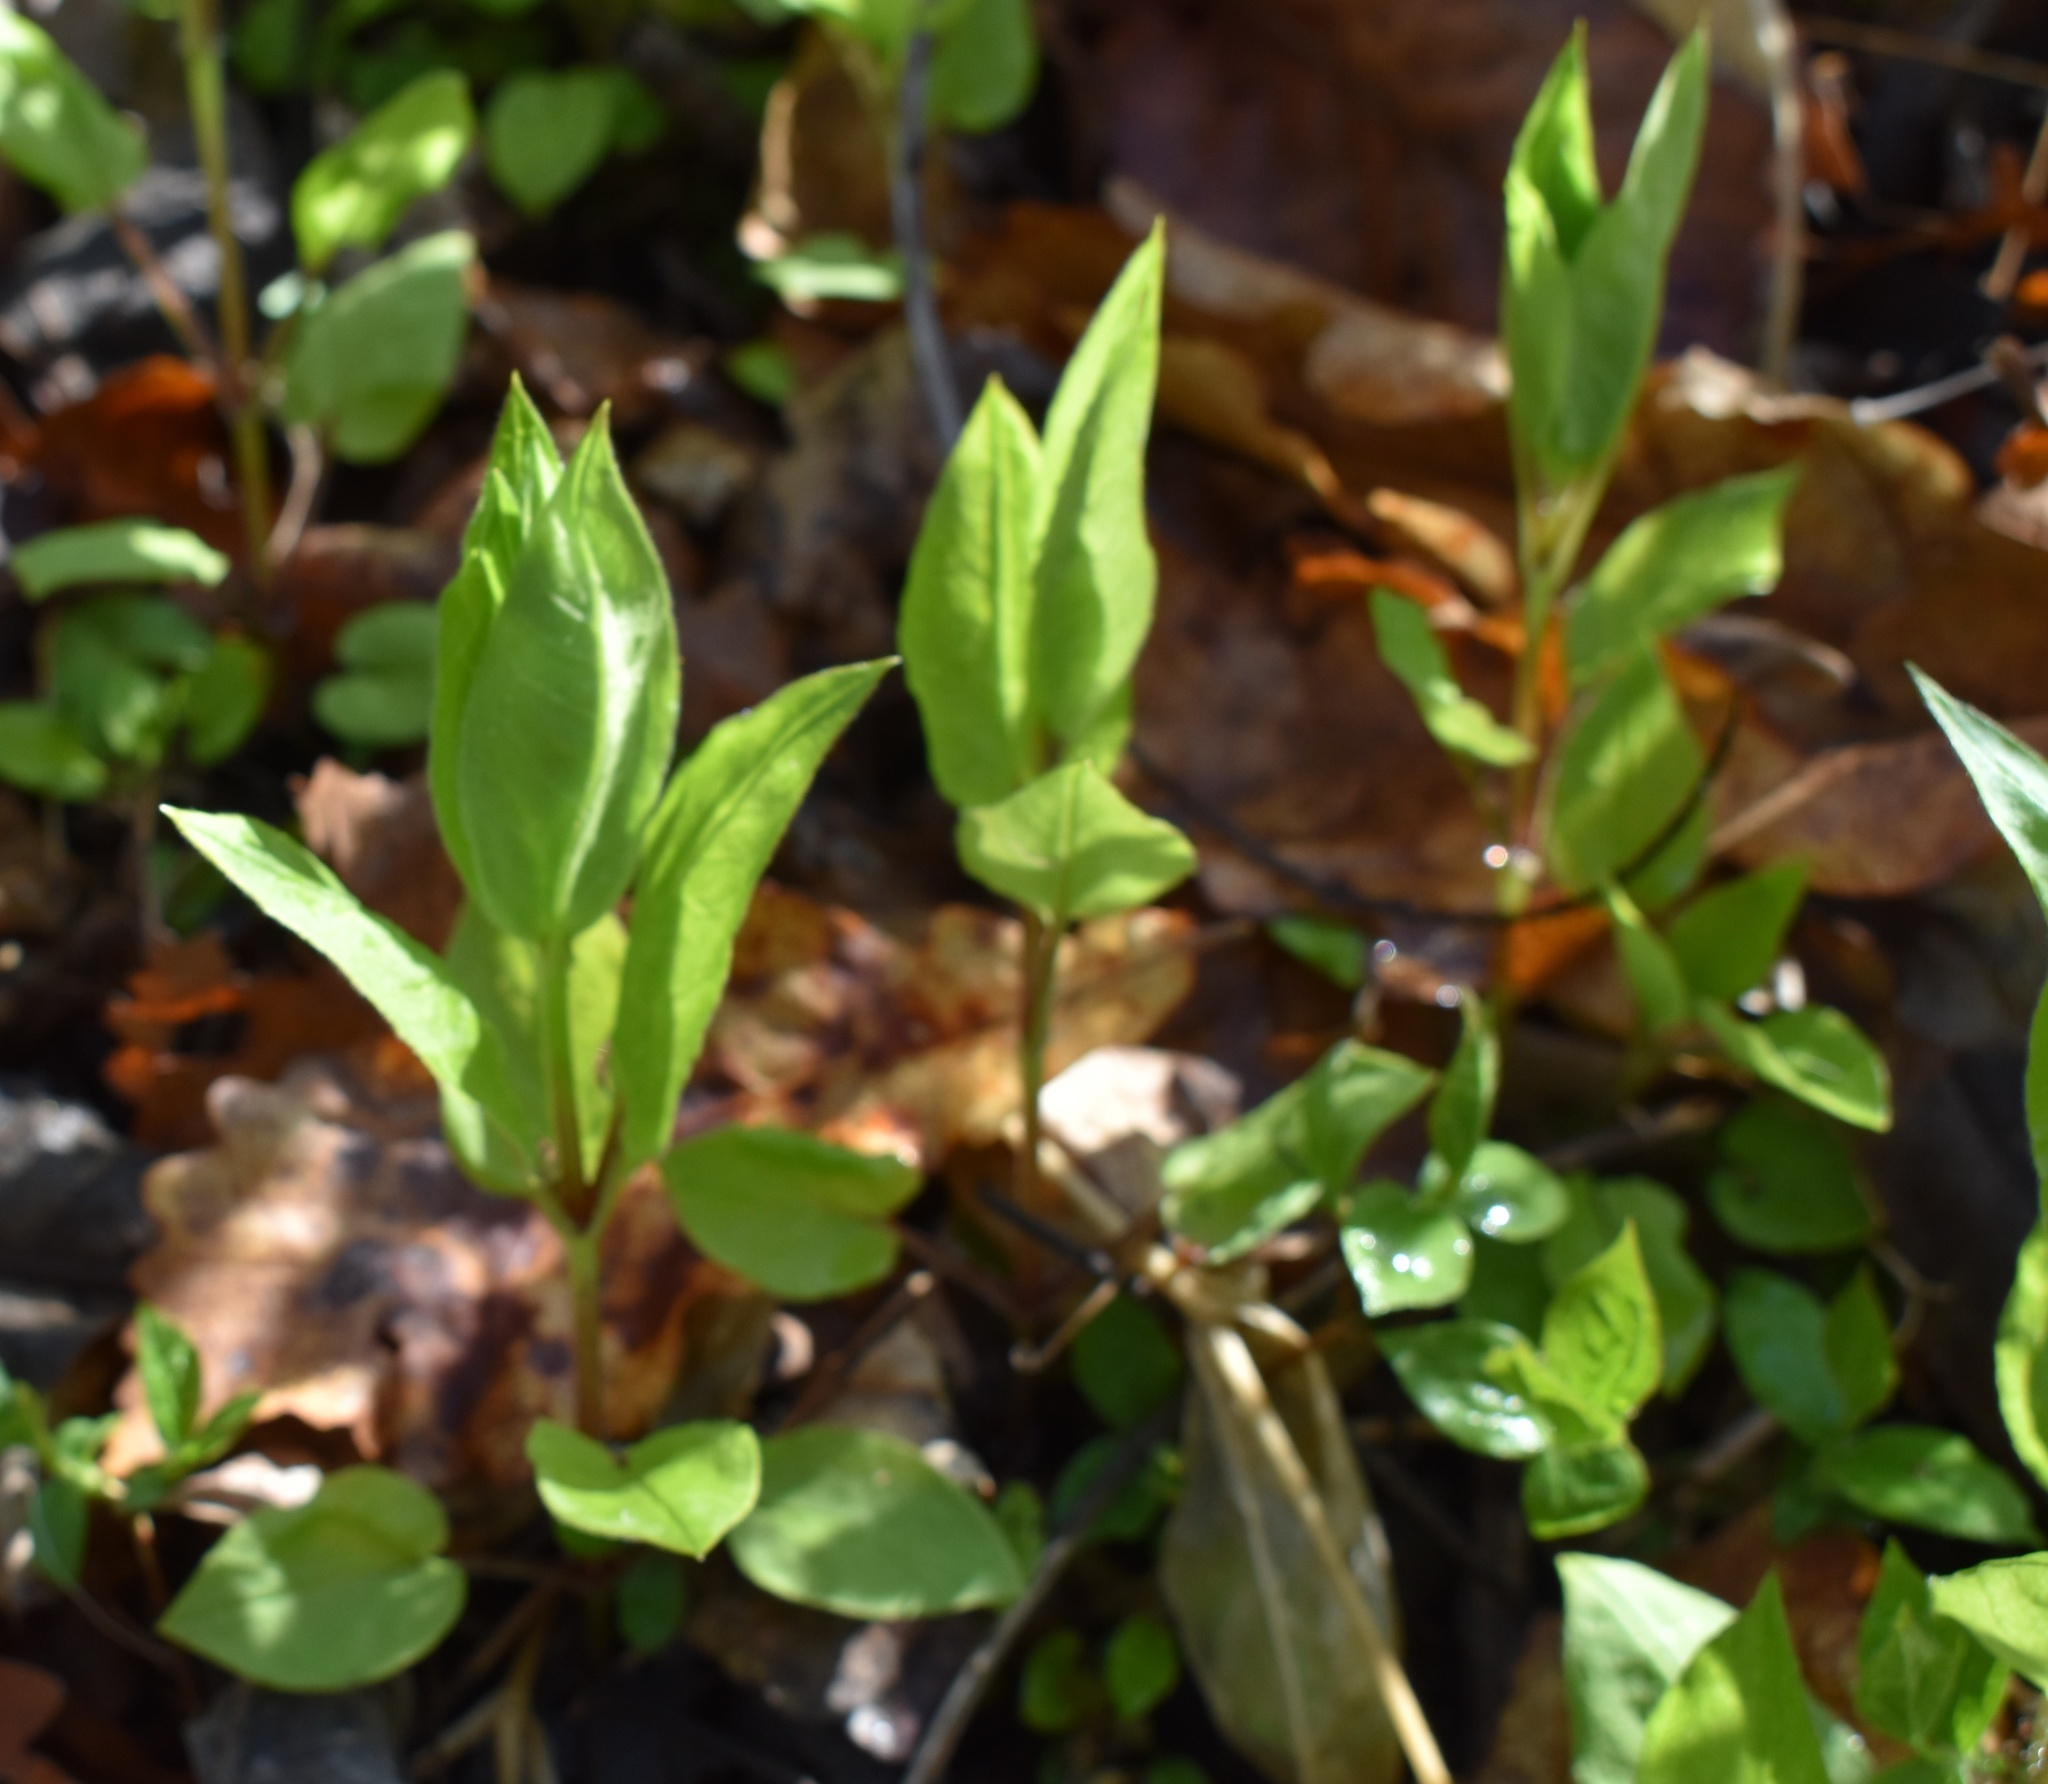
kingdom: Plantae
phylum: Tracheophyta
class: Magnoliopsida
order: Caryophyllales
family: Caryophyllaceae
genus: Stellaria
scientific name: Stellaria bungeana
